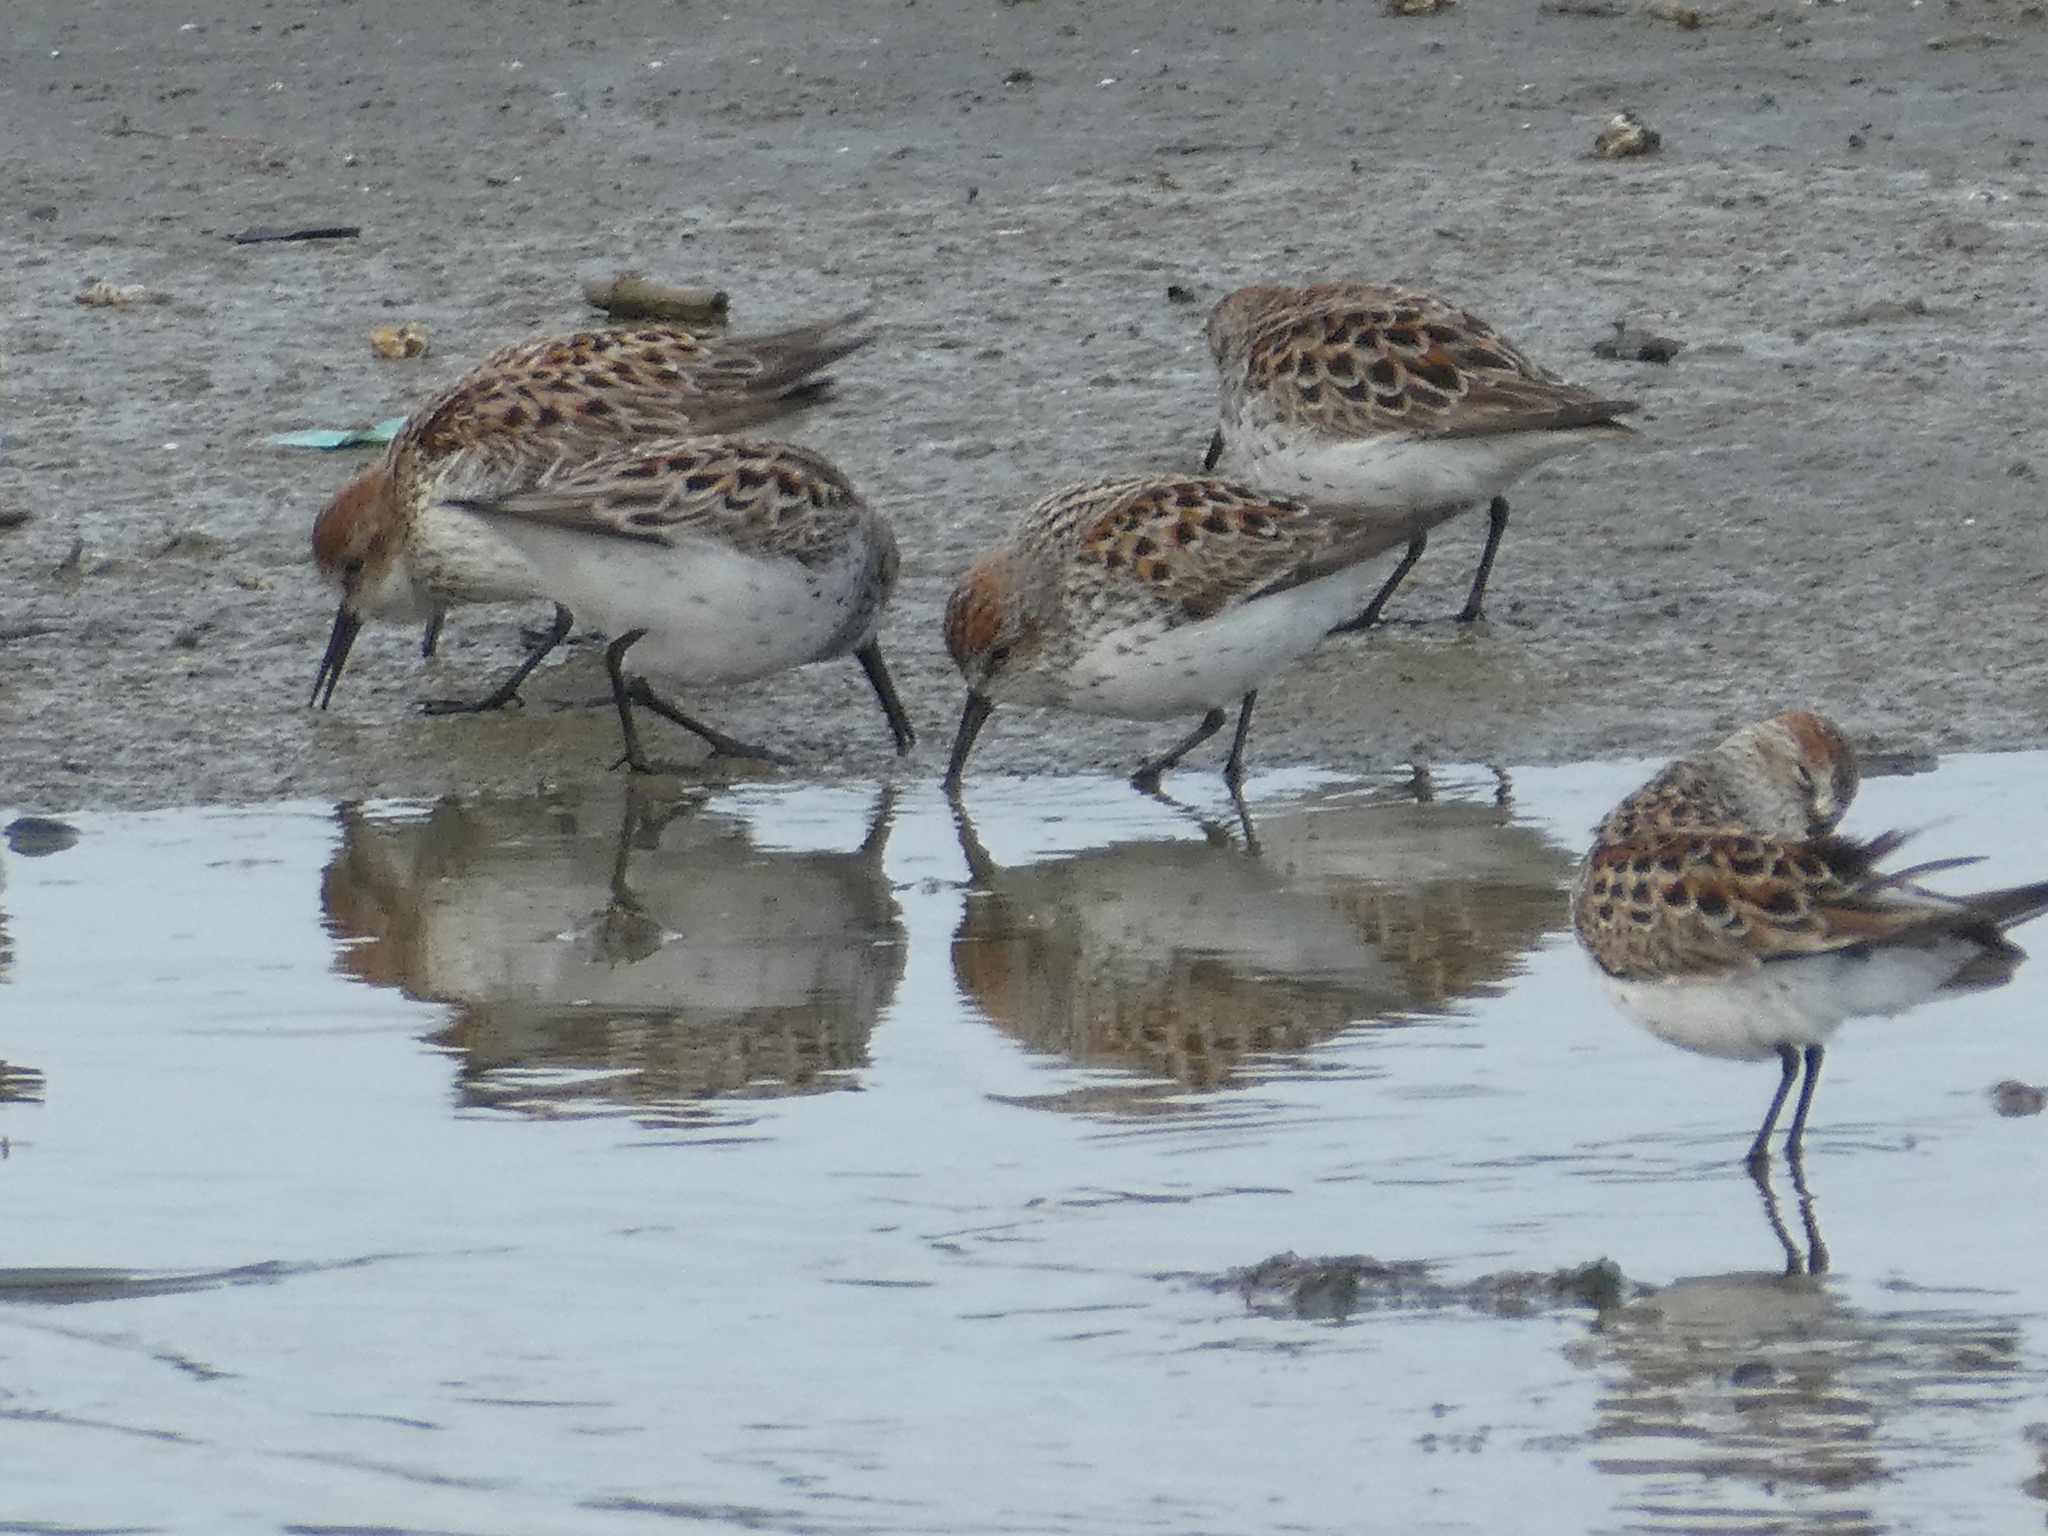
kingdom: Animalia
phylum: Chordata
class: Aves
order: Charadriiformes
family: Scolopacidae
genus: Calidris
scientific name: Calidris mauri
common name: Western sandpiper
